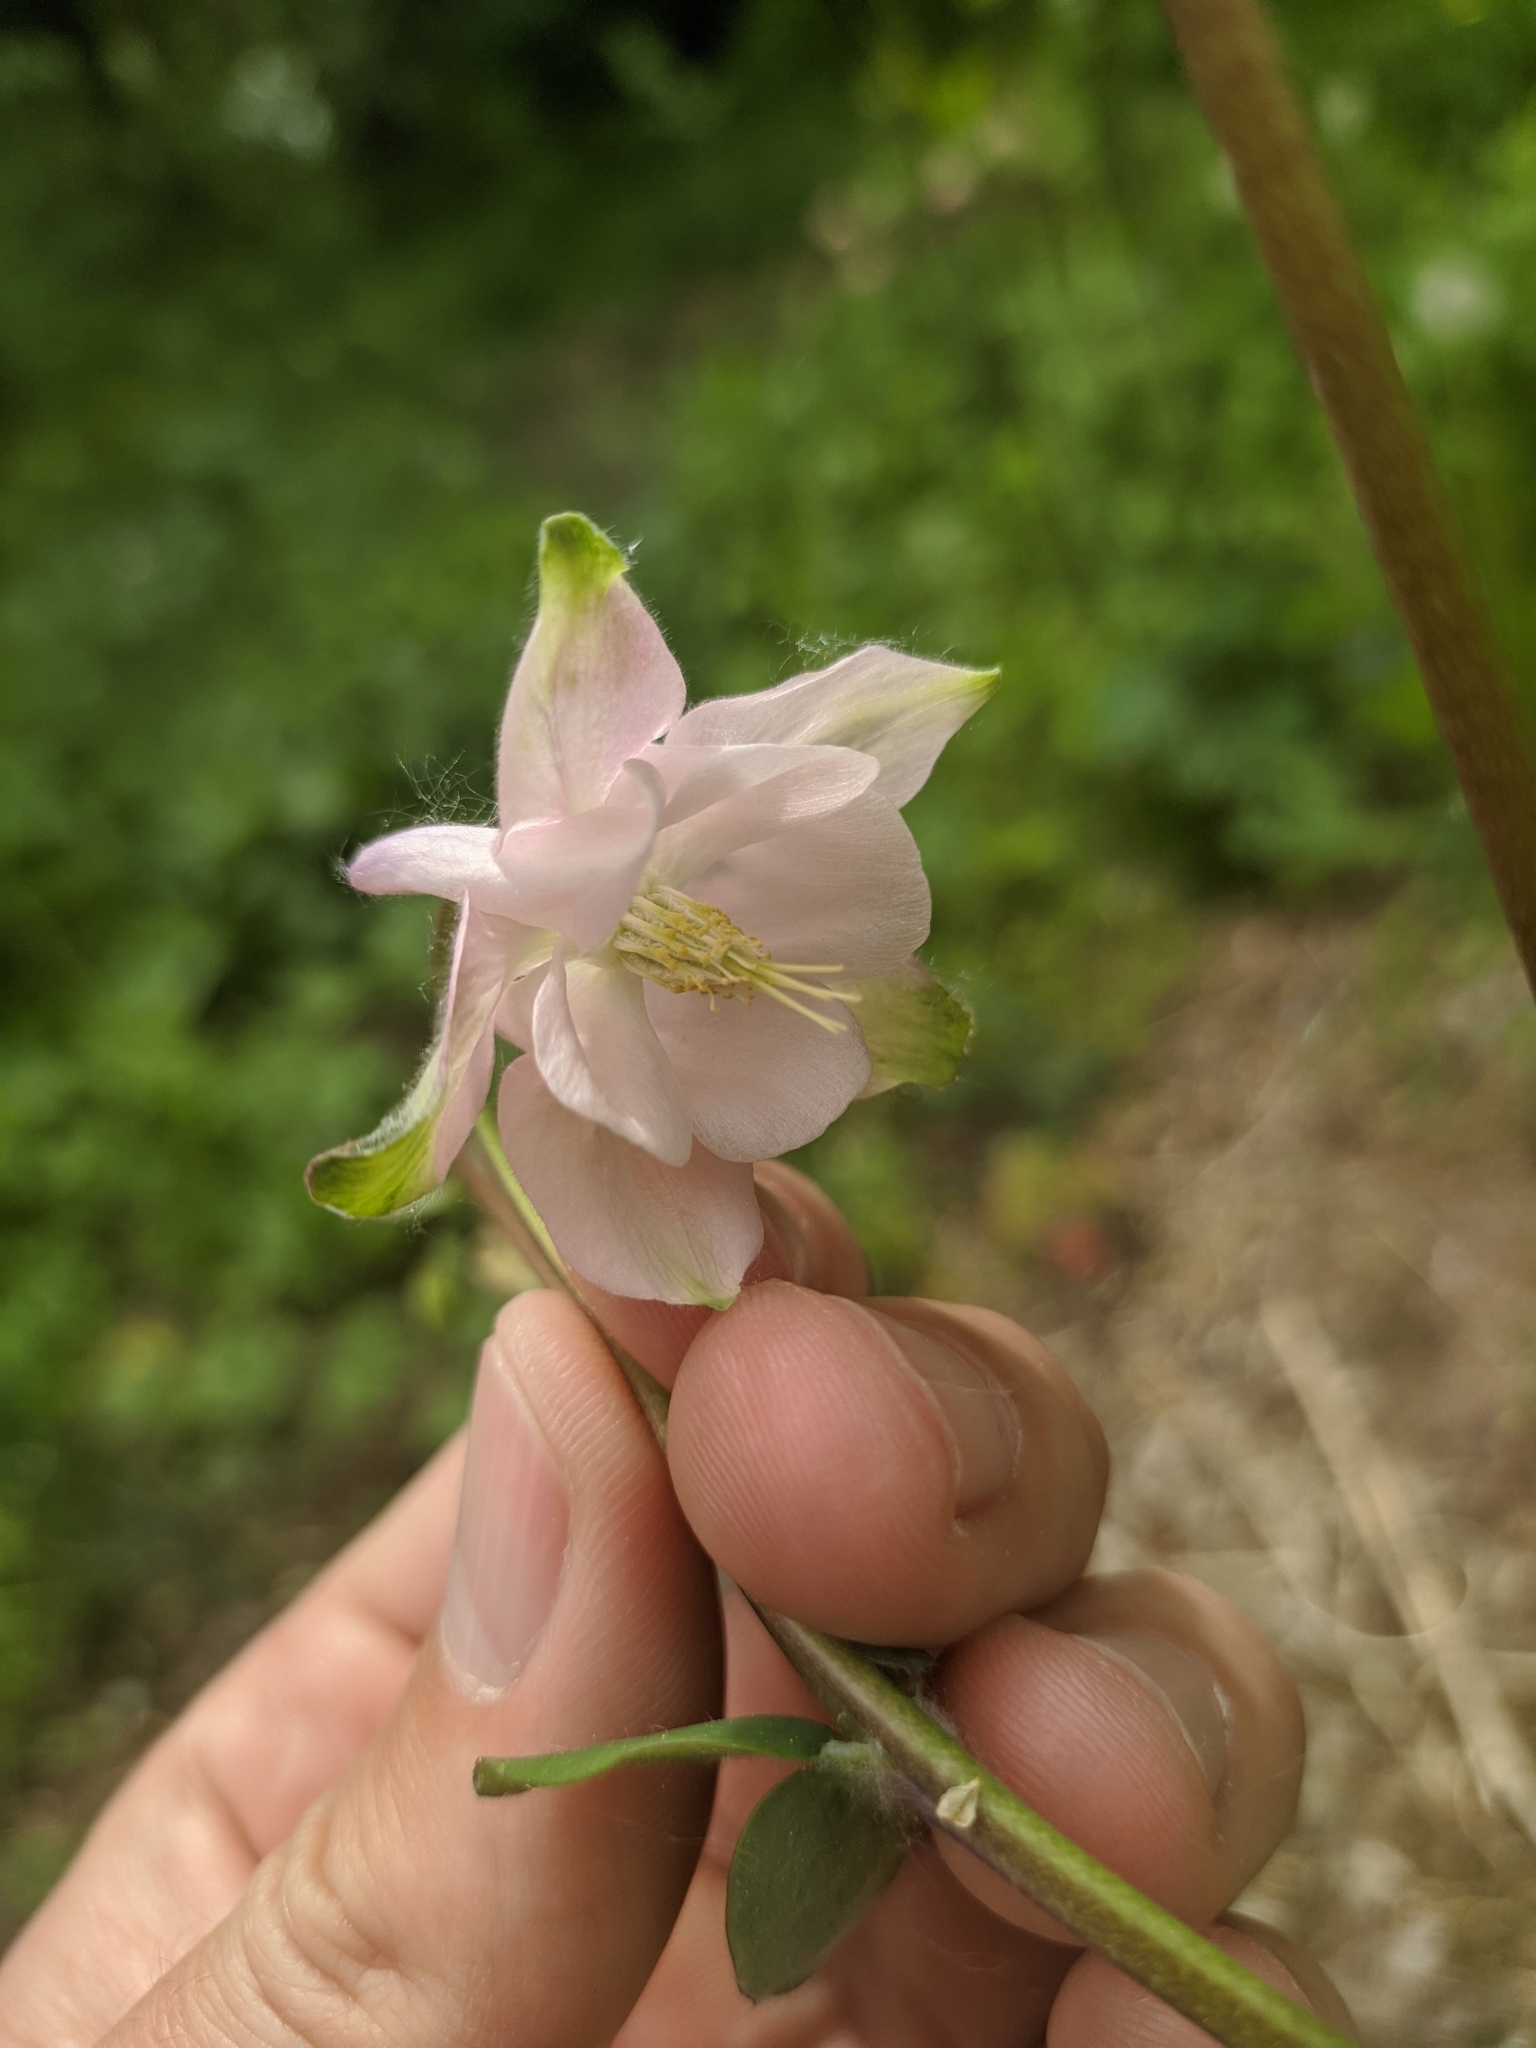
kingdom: Plantae
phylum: Tracheophyta
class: Magnoliopsida
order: Ranunculales
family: Ranunculaceae
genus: Aquilegia
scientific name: Aquilegia vulgaris
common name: Columbine
